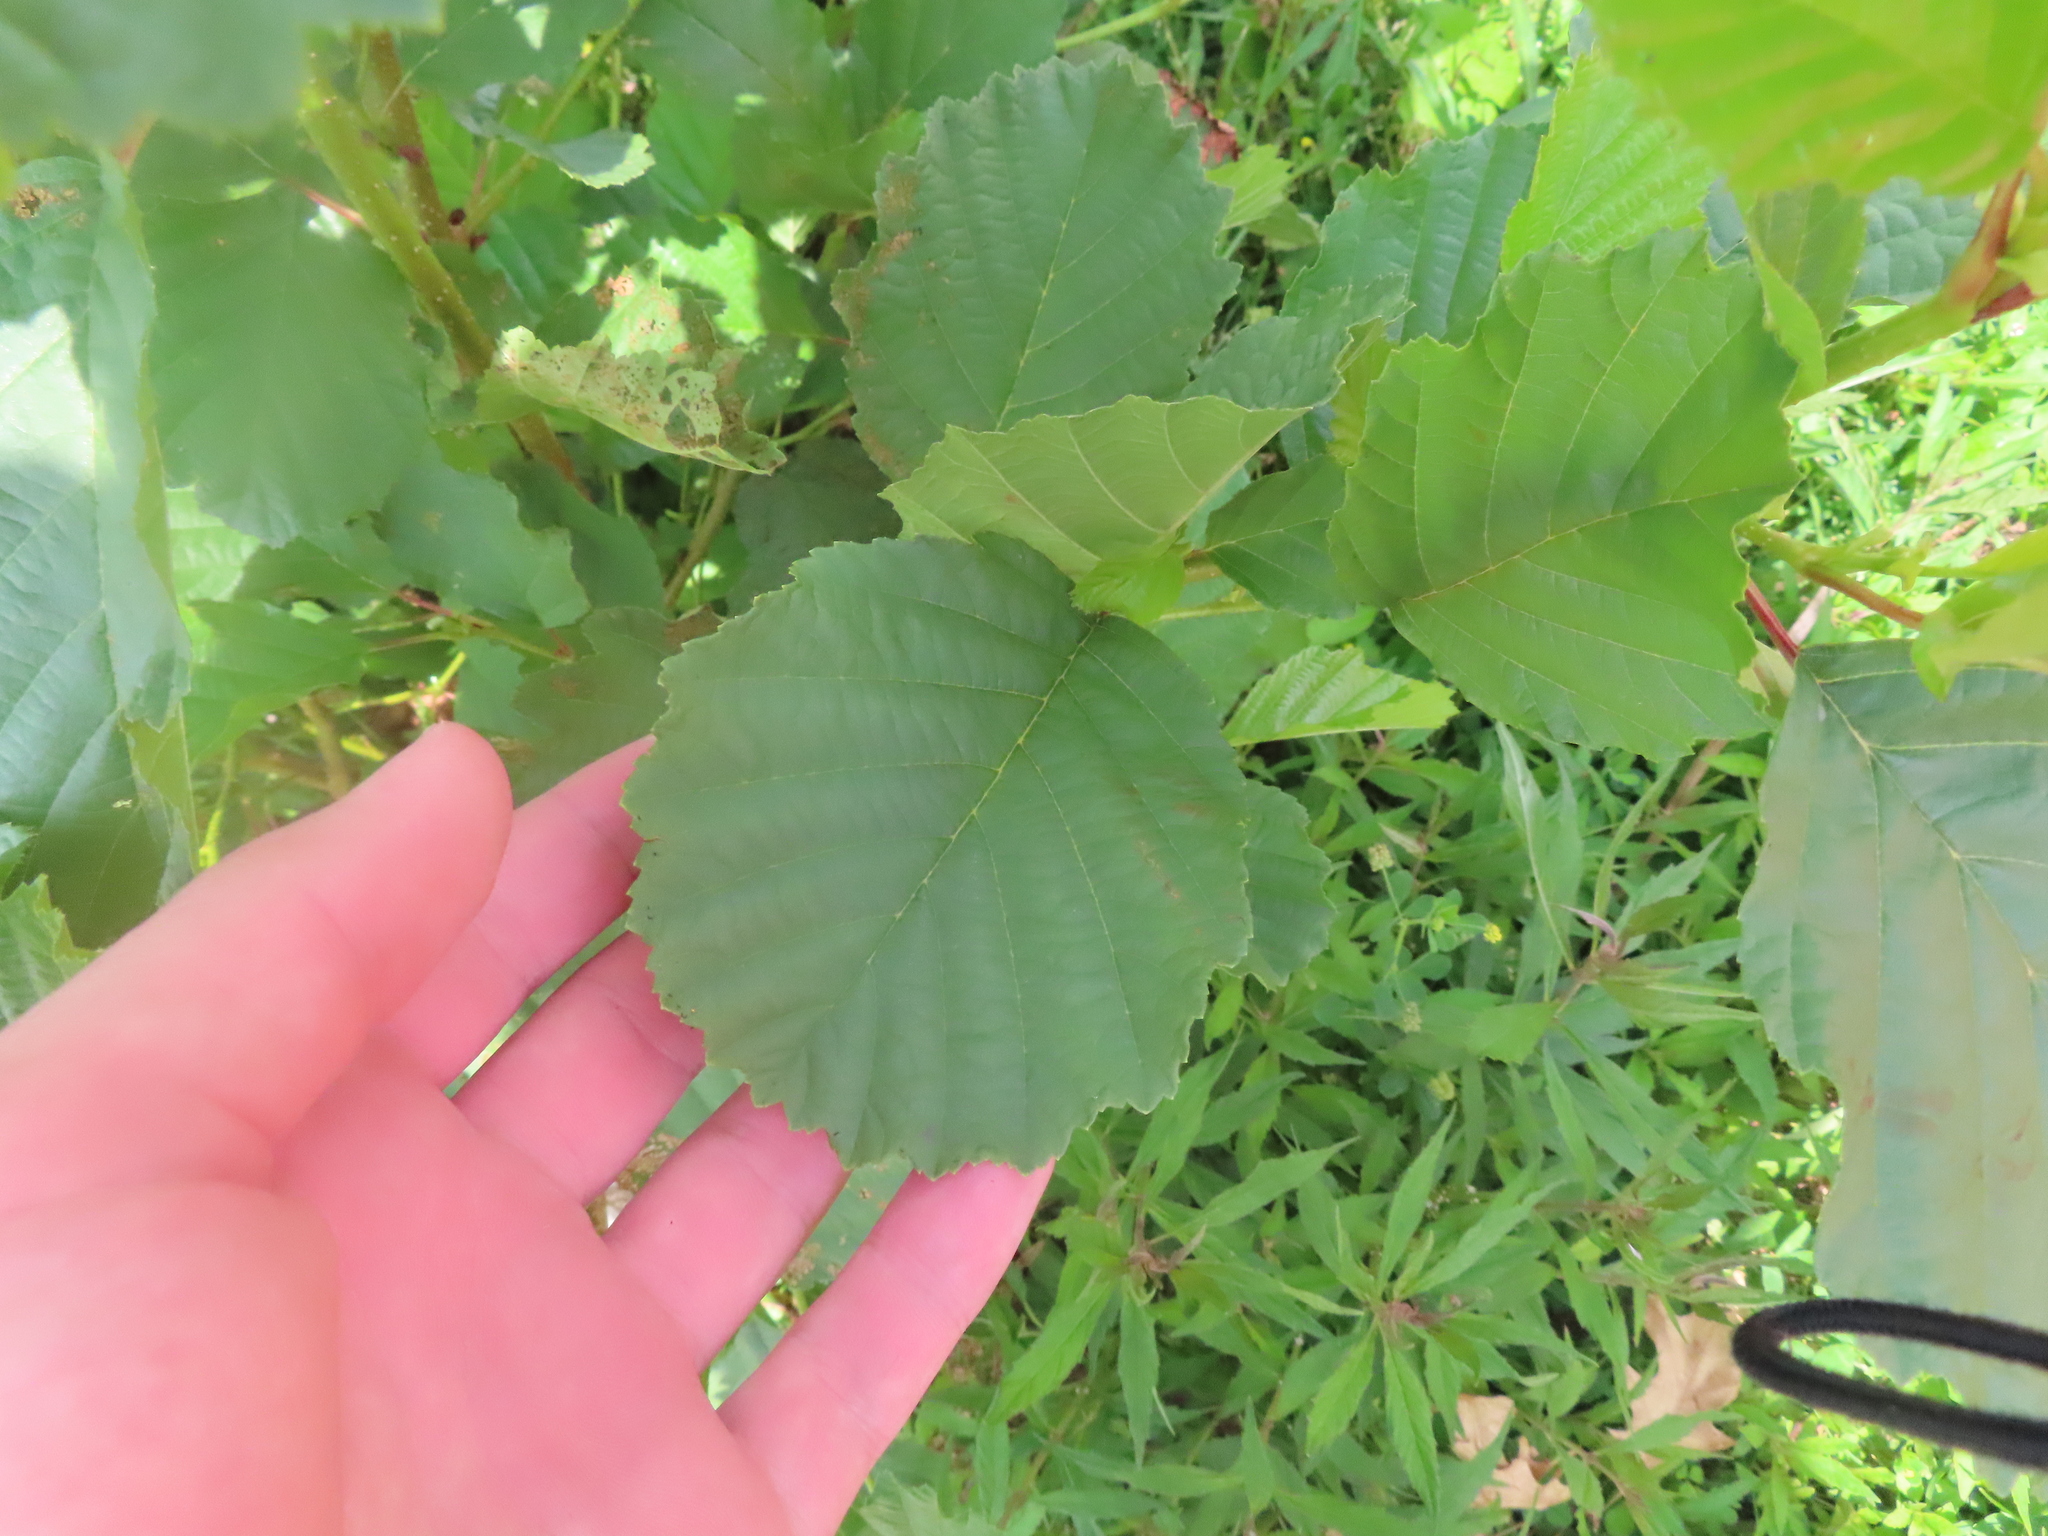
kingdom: Plantae
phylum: Tracheophyta
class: Magnoliopsida
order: Fagales
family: Betulaceae
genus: Alnus
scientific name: Alnus glutinosa
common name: Black alder
